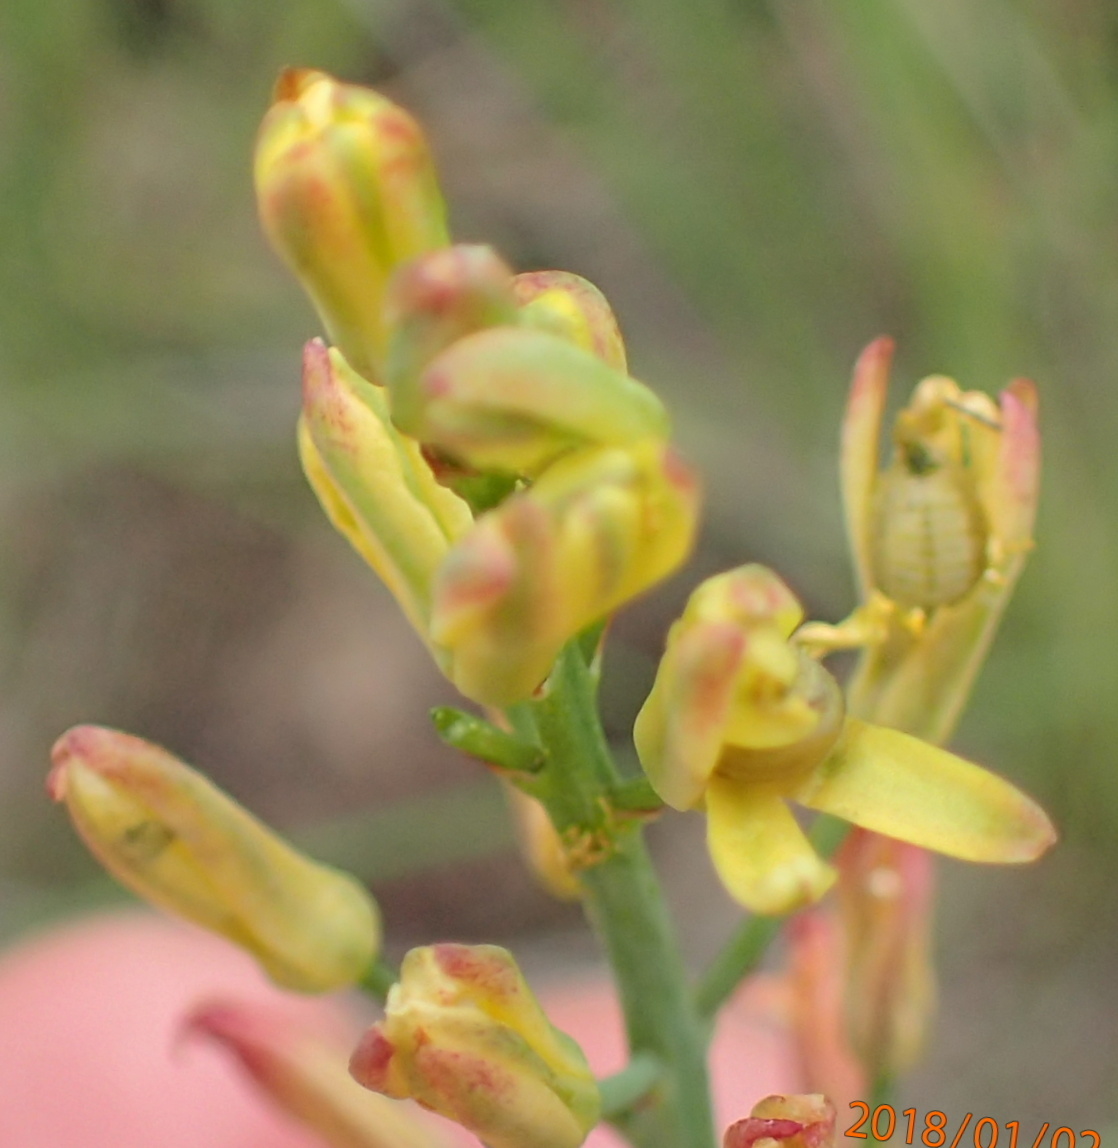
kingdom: Plantae
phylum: Tracheophyta
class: Liliopsida
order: Asparagales
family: Asparagaceae
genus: Eriospermum
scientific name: Eriospermum mackenii
